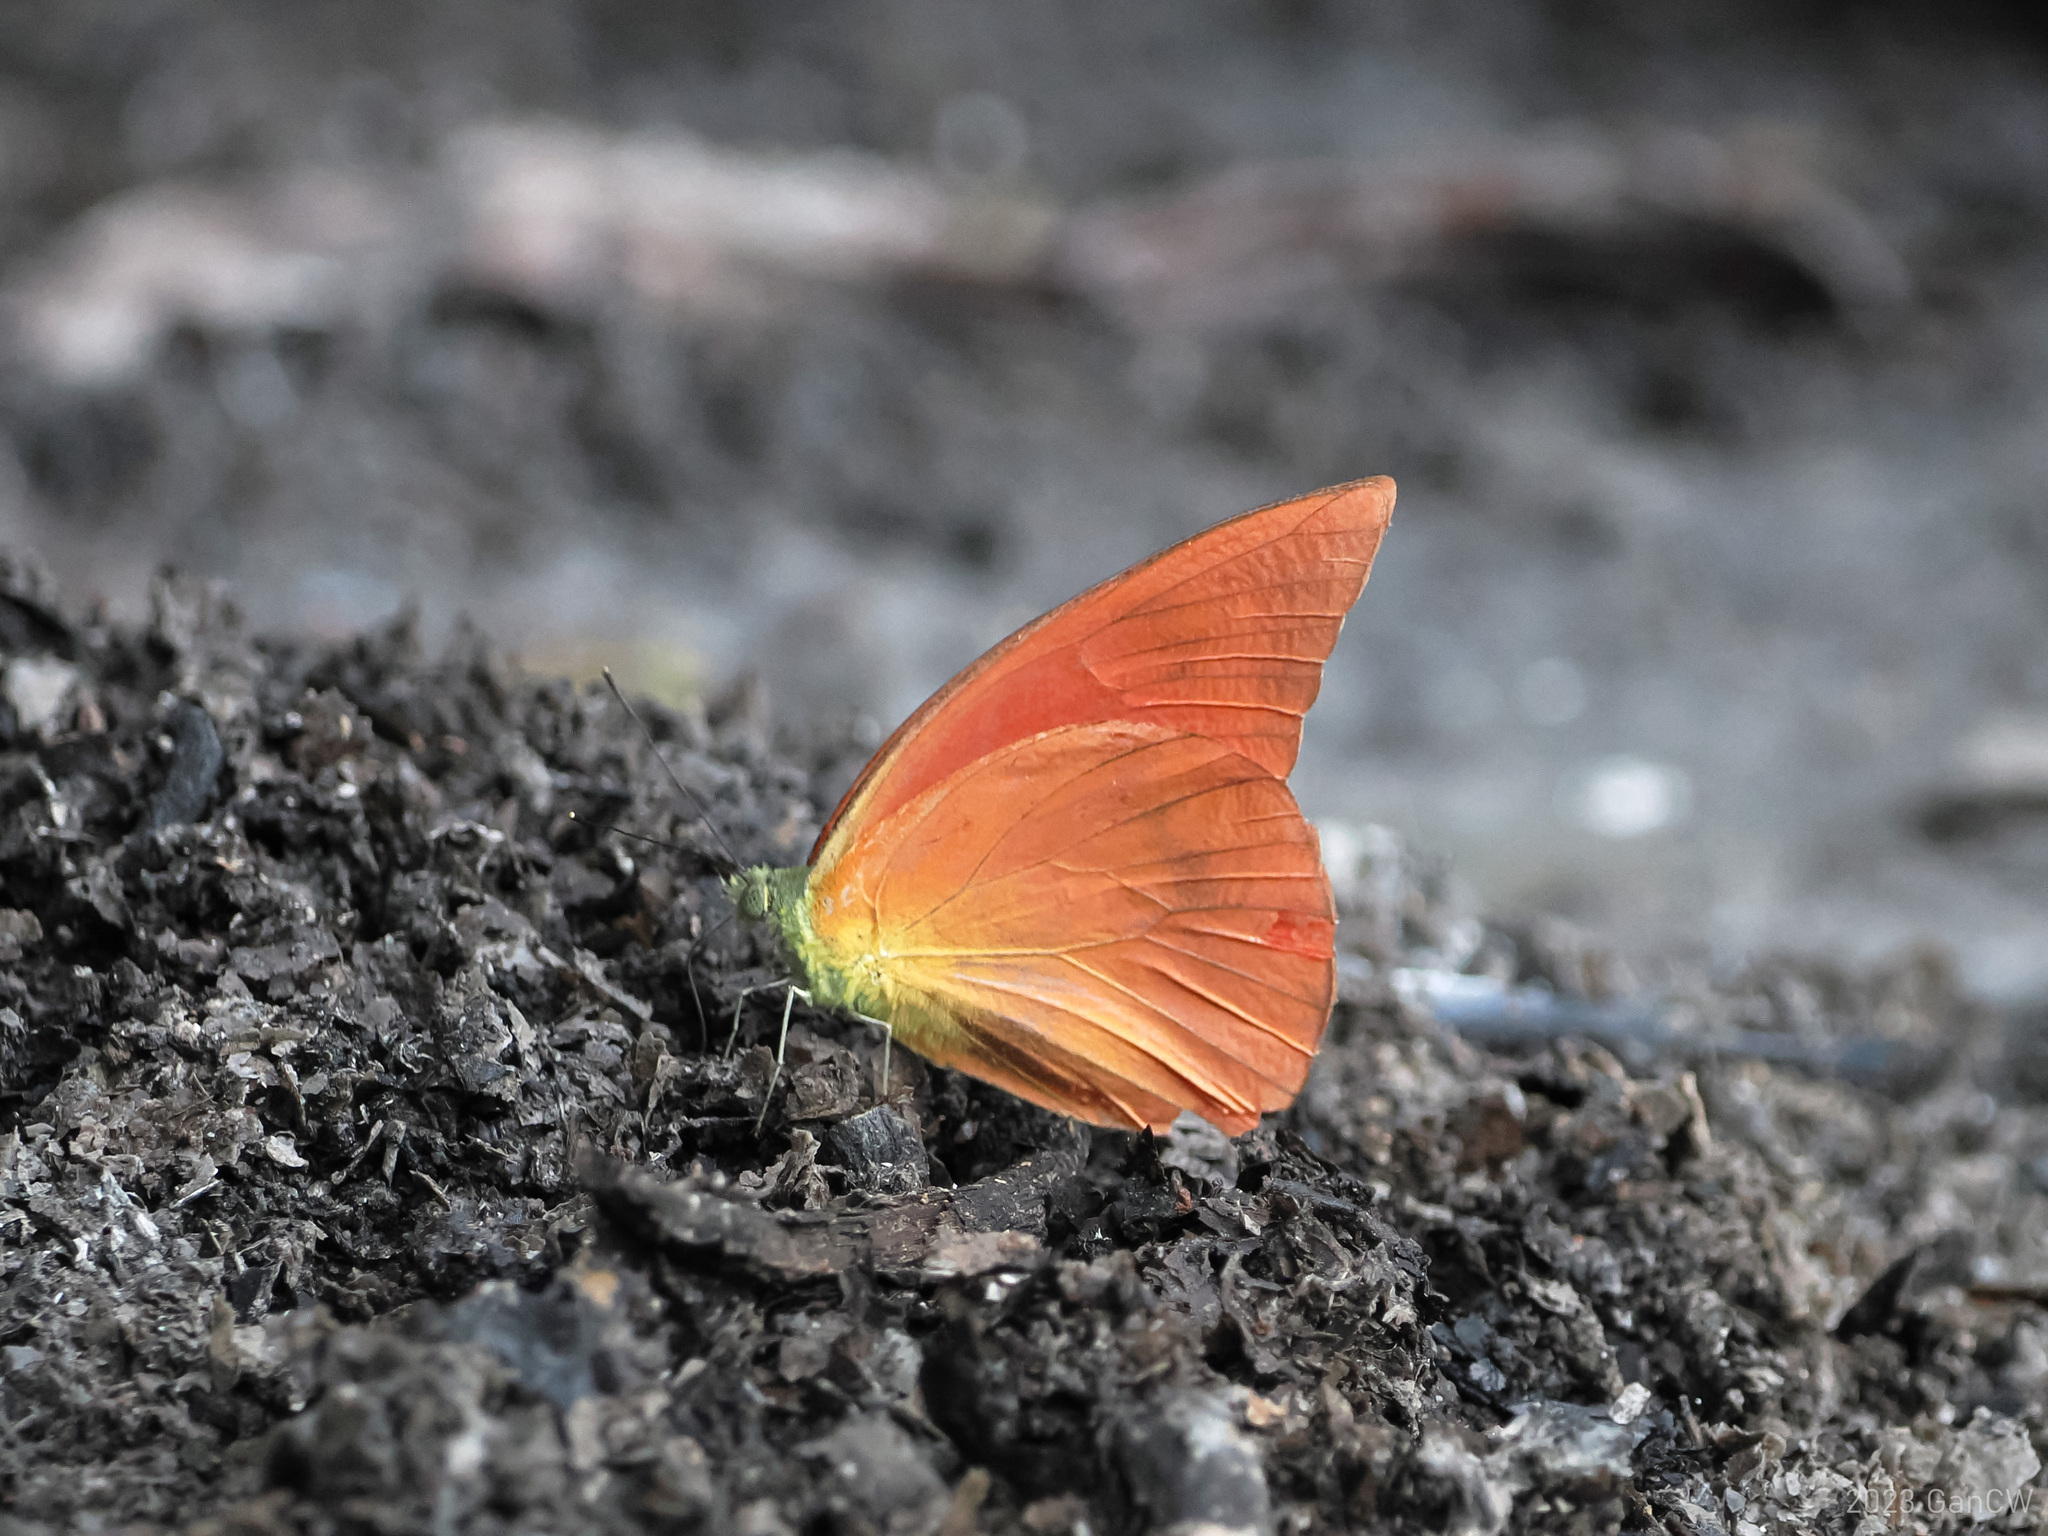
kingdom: Animalia
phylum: Arthropoda
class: Insecta
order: Lepidoptera
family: Pieridae
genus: Appias
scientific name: Appias zarinda
